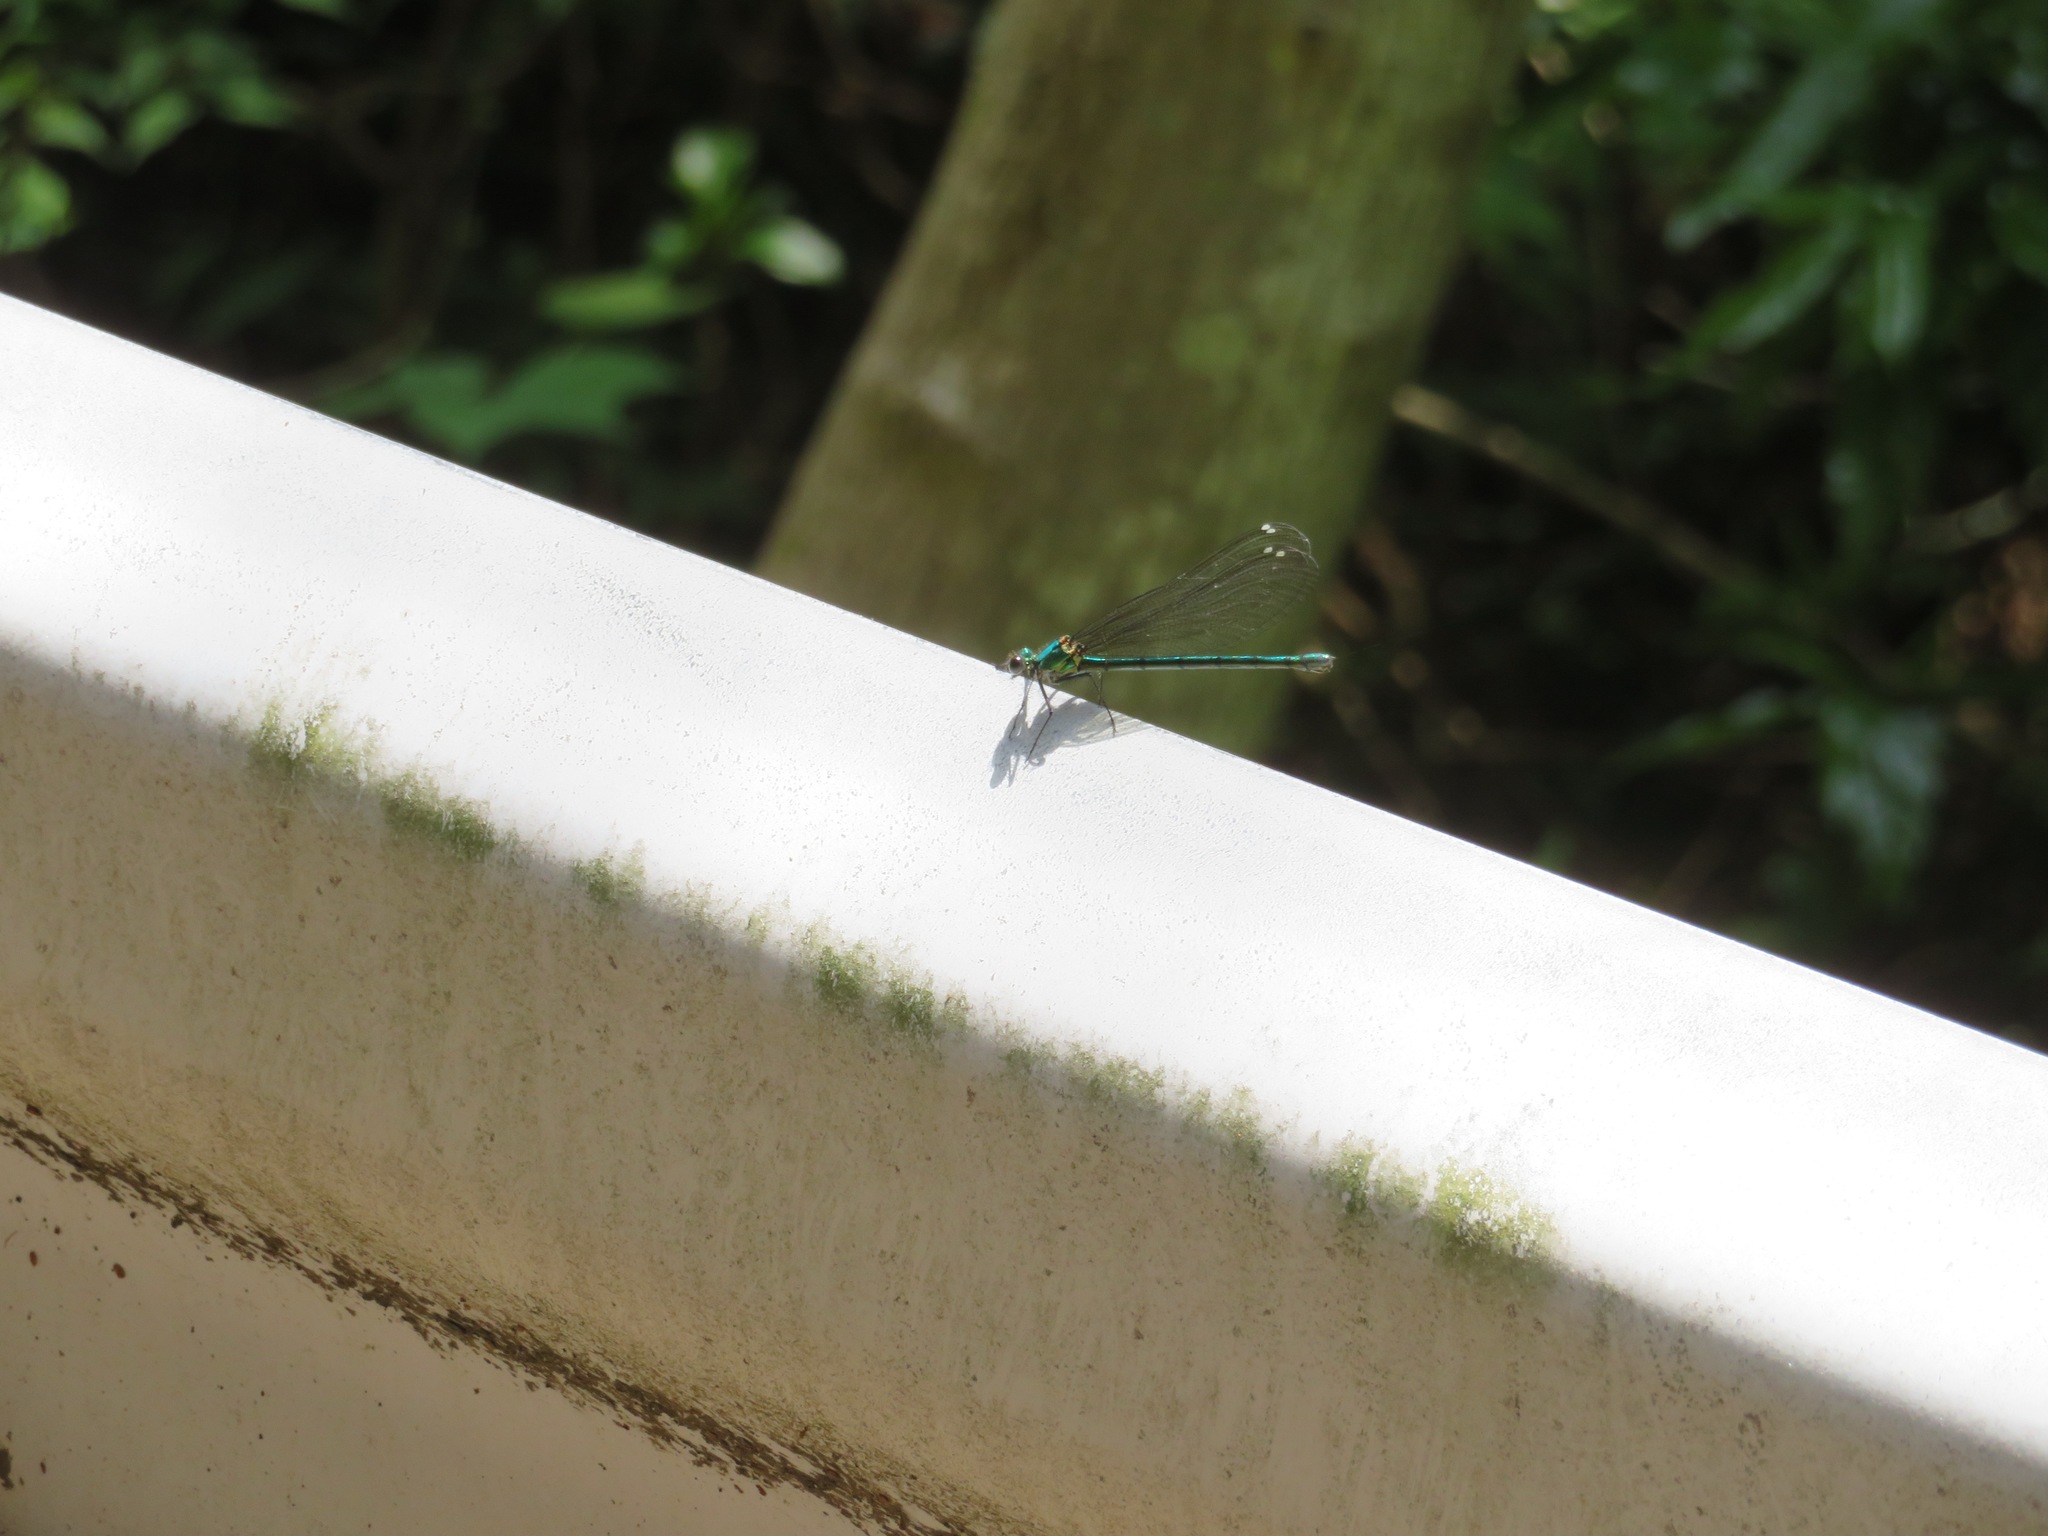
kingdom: Animalia
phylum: Arthropoda
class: Insecta
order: Odonata
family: Calopterygidae
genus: Mnais
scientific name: Mnais pruinosa
